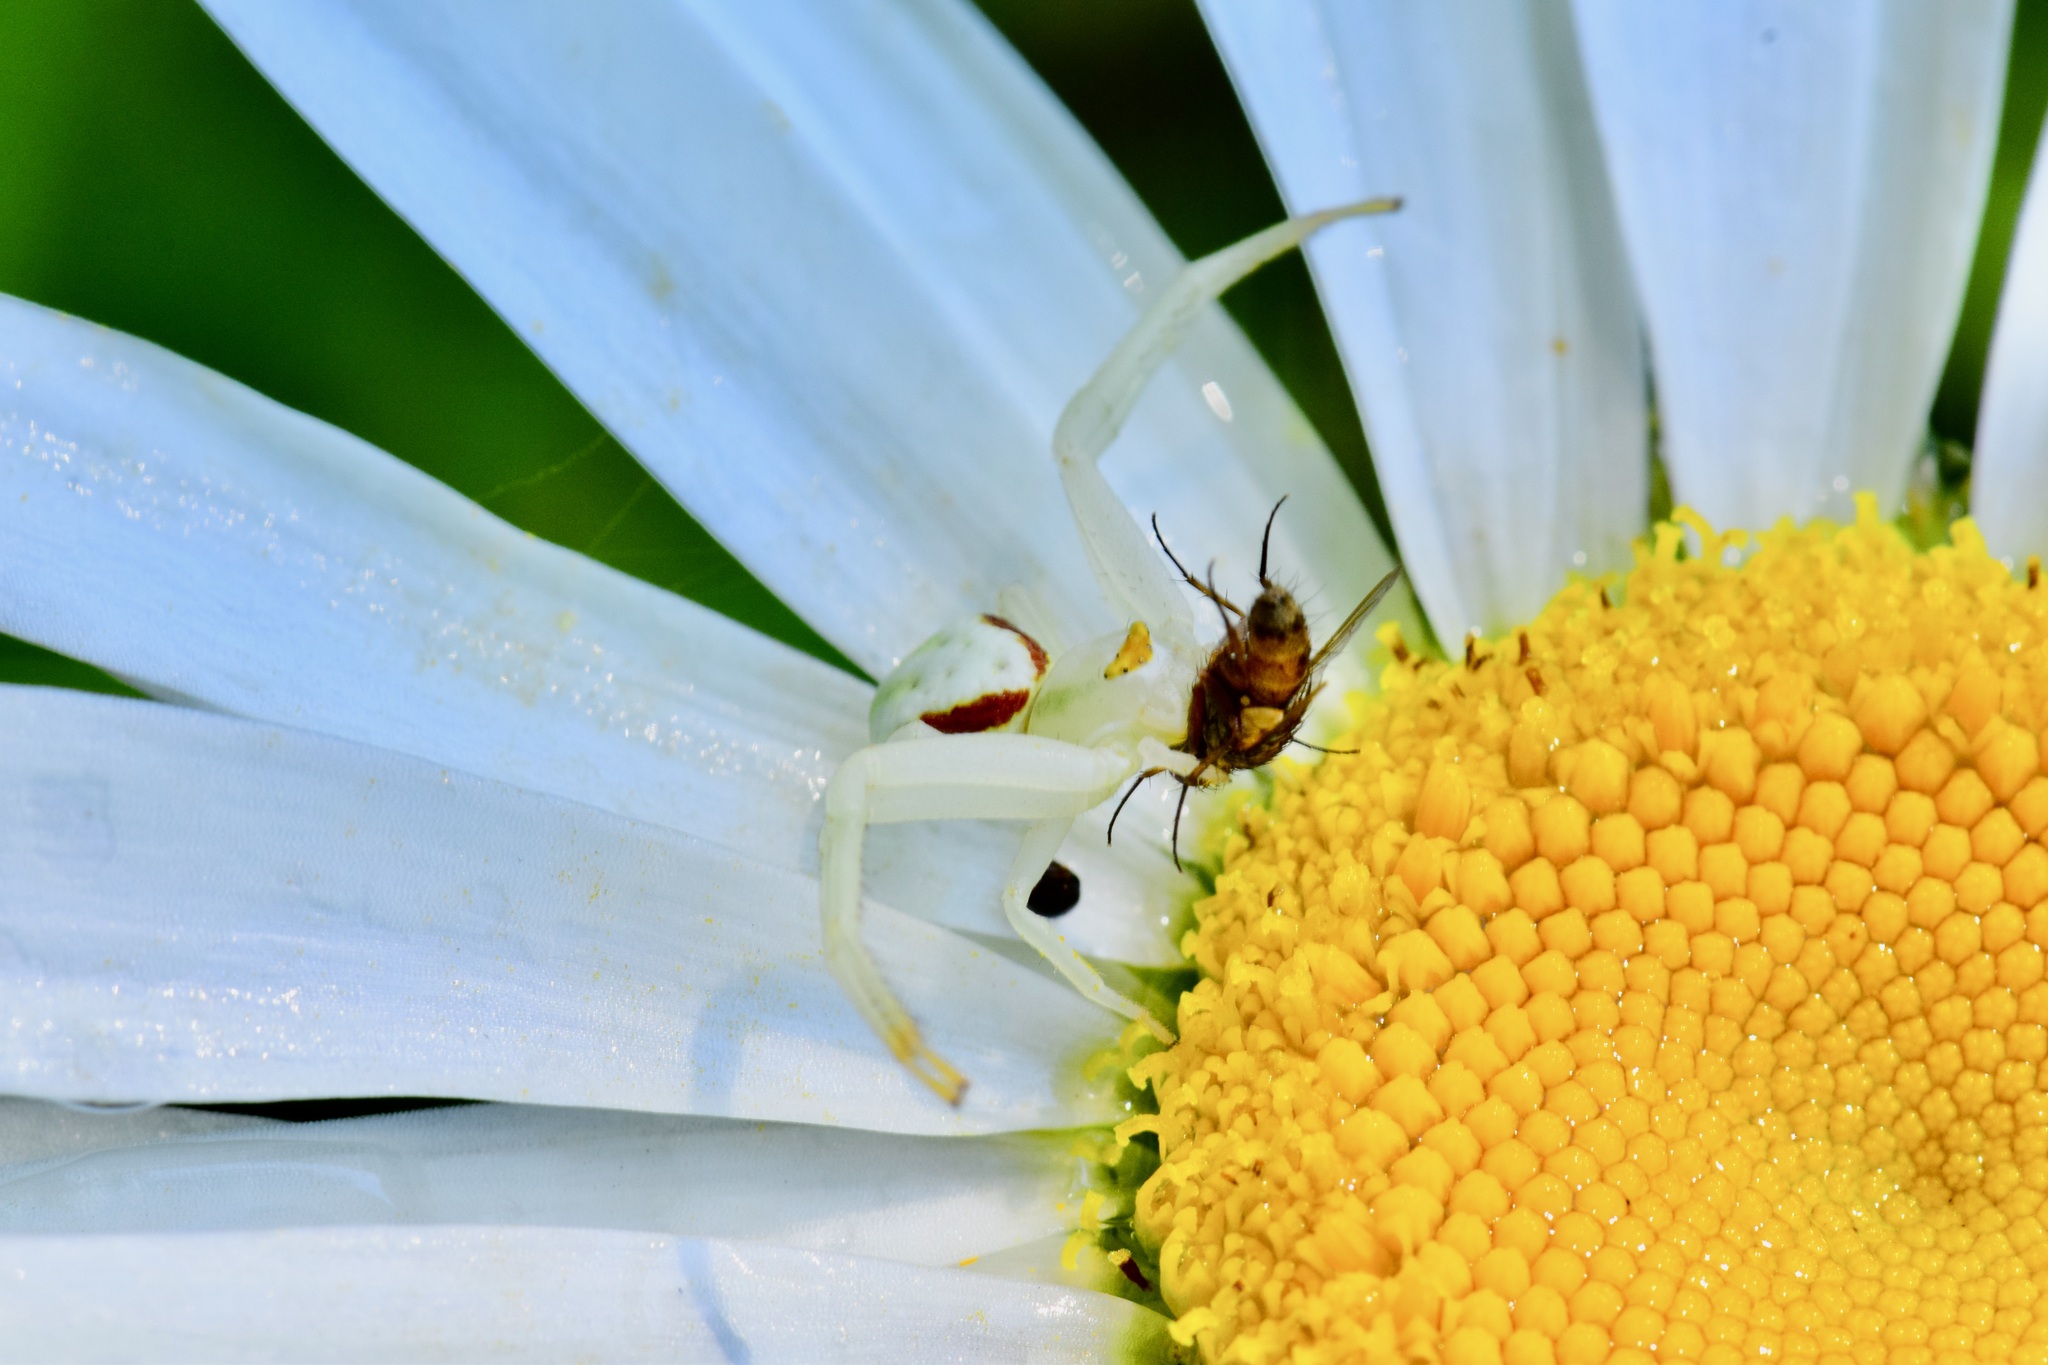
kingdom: Animalia
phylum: Arthropoda
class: Arachnida
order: Araneae
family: Thomisidae
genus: Misumena
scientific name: Misumena vatia
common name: Goldenrod crab spider
